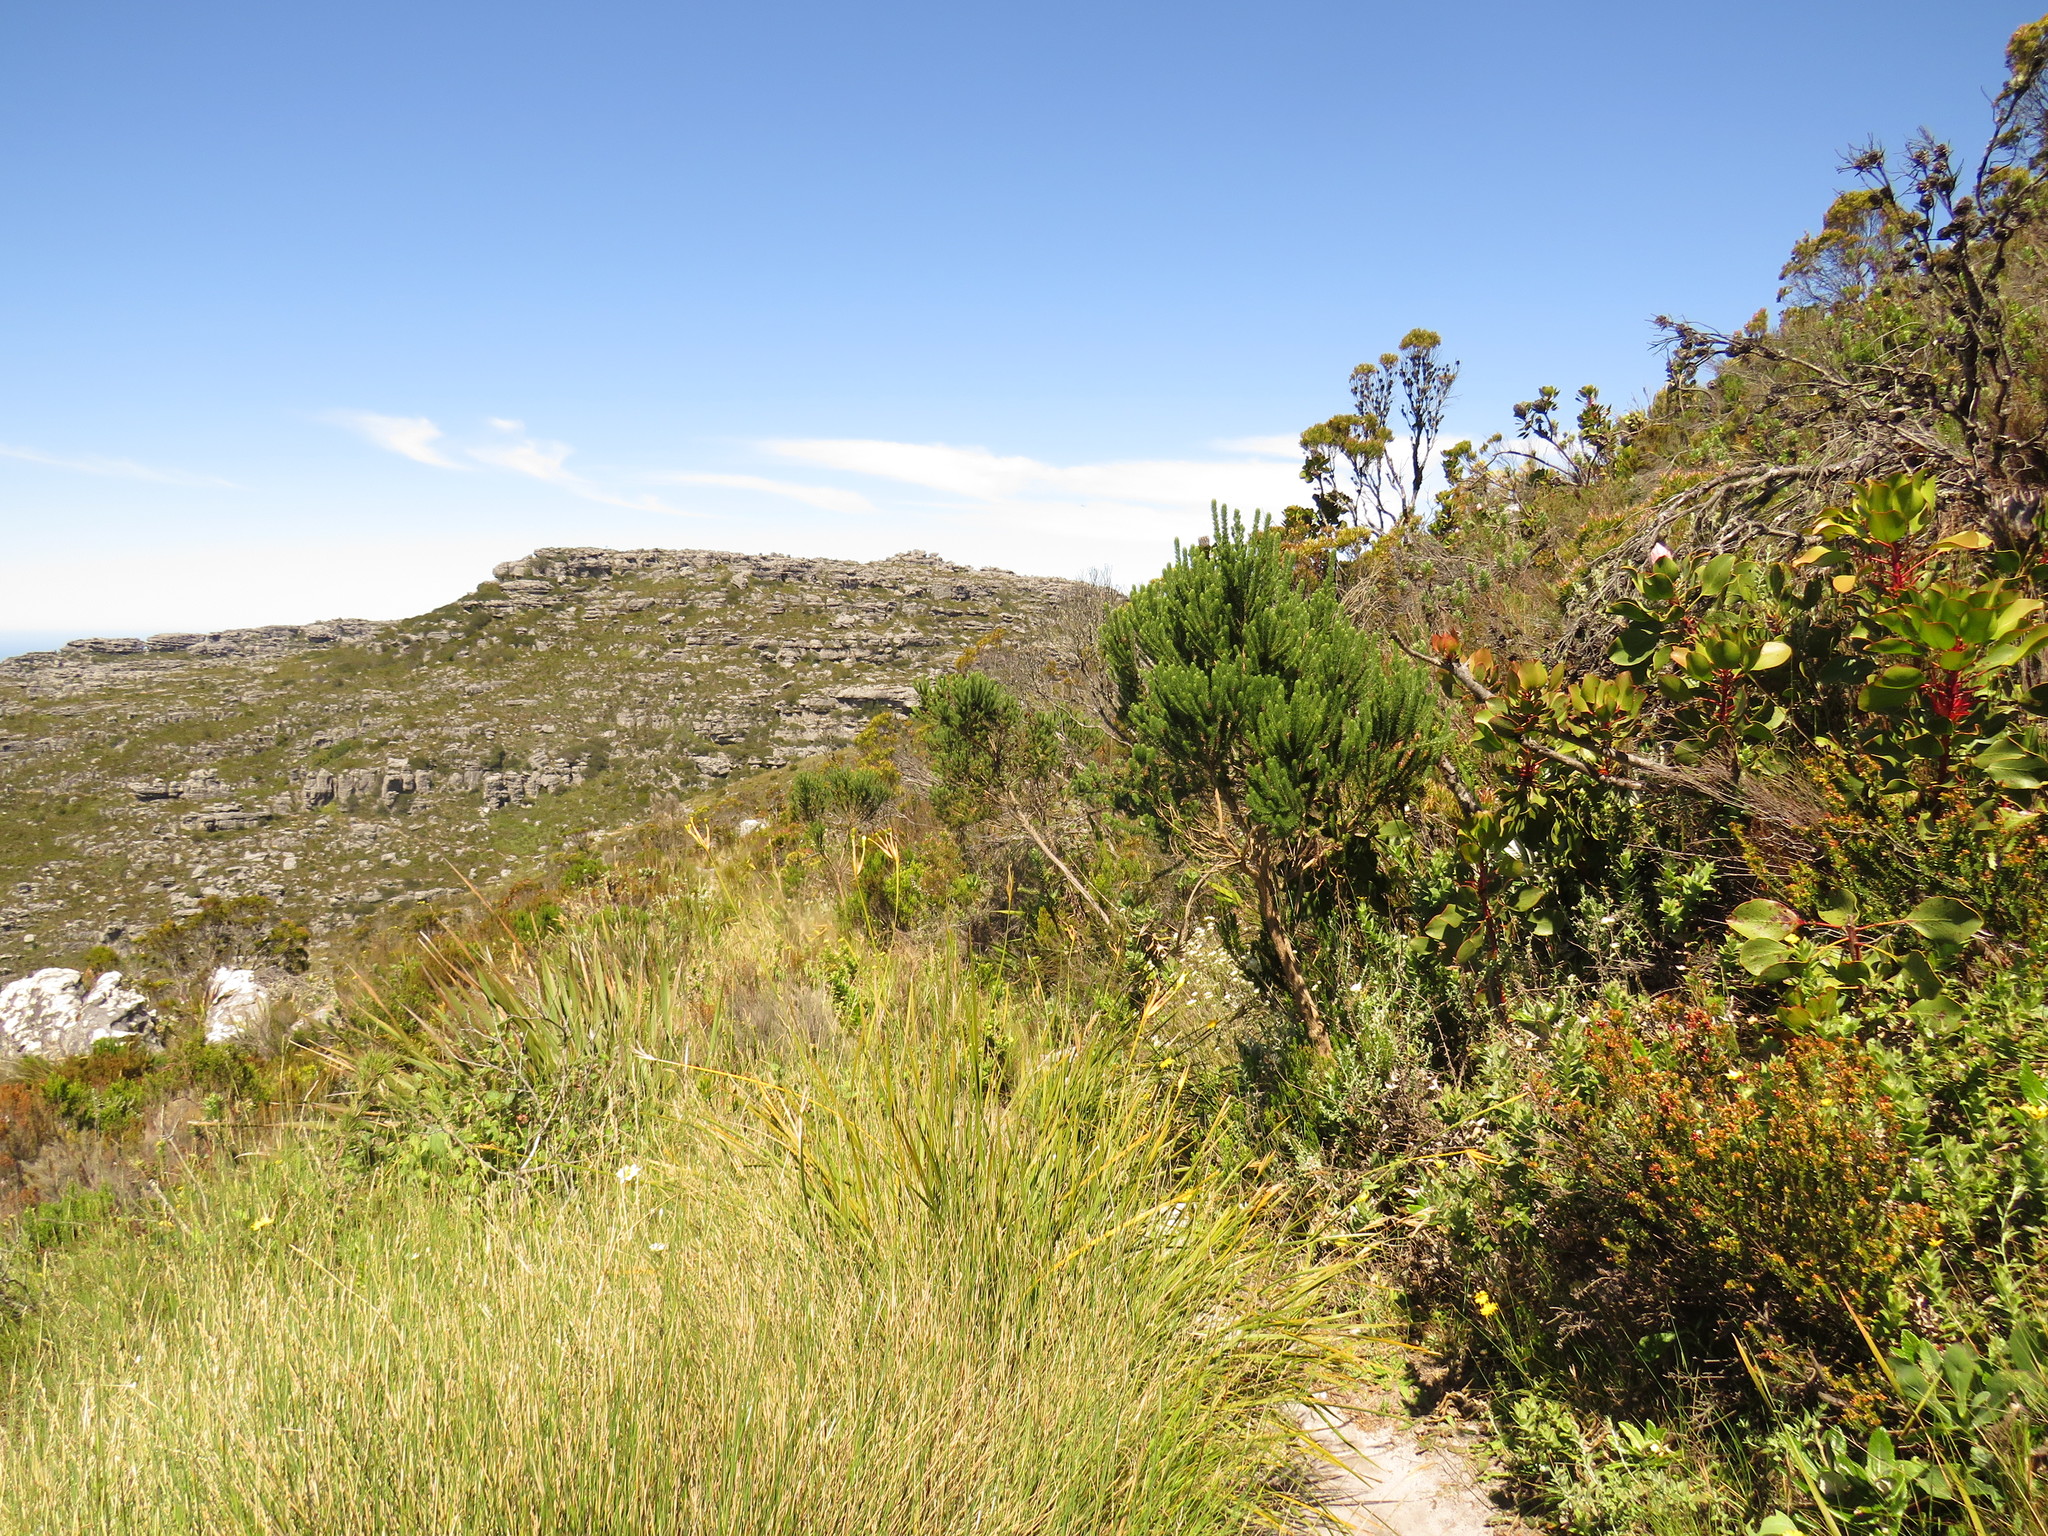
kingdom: Plantae
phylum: Tracheophyta
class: Magnoliopsida
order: Fabales
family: Fabaceae
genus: Aspalathus
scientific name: Aspalathus capitata
